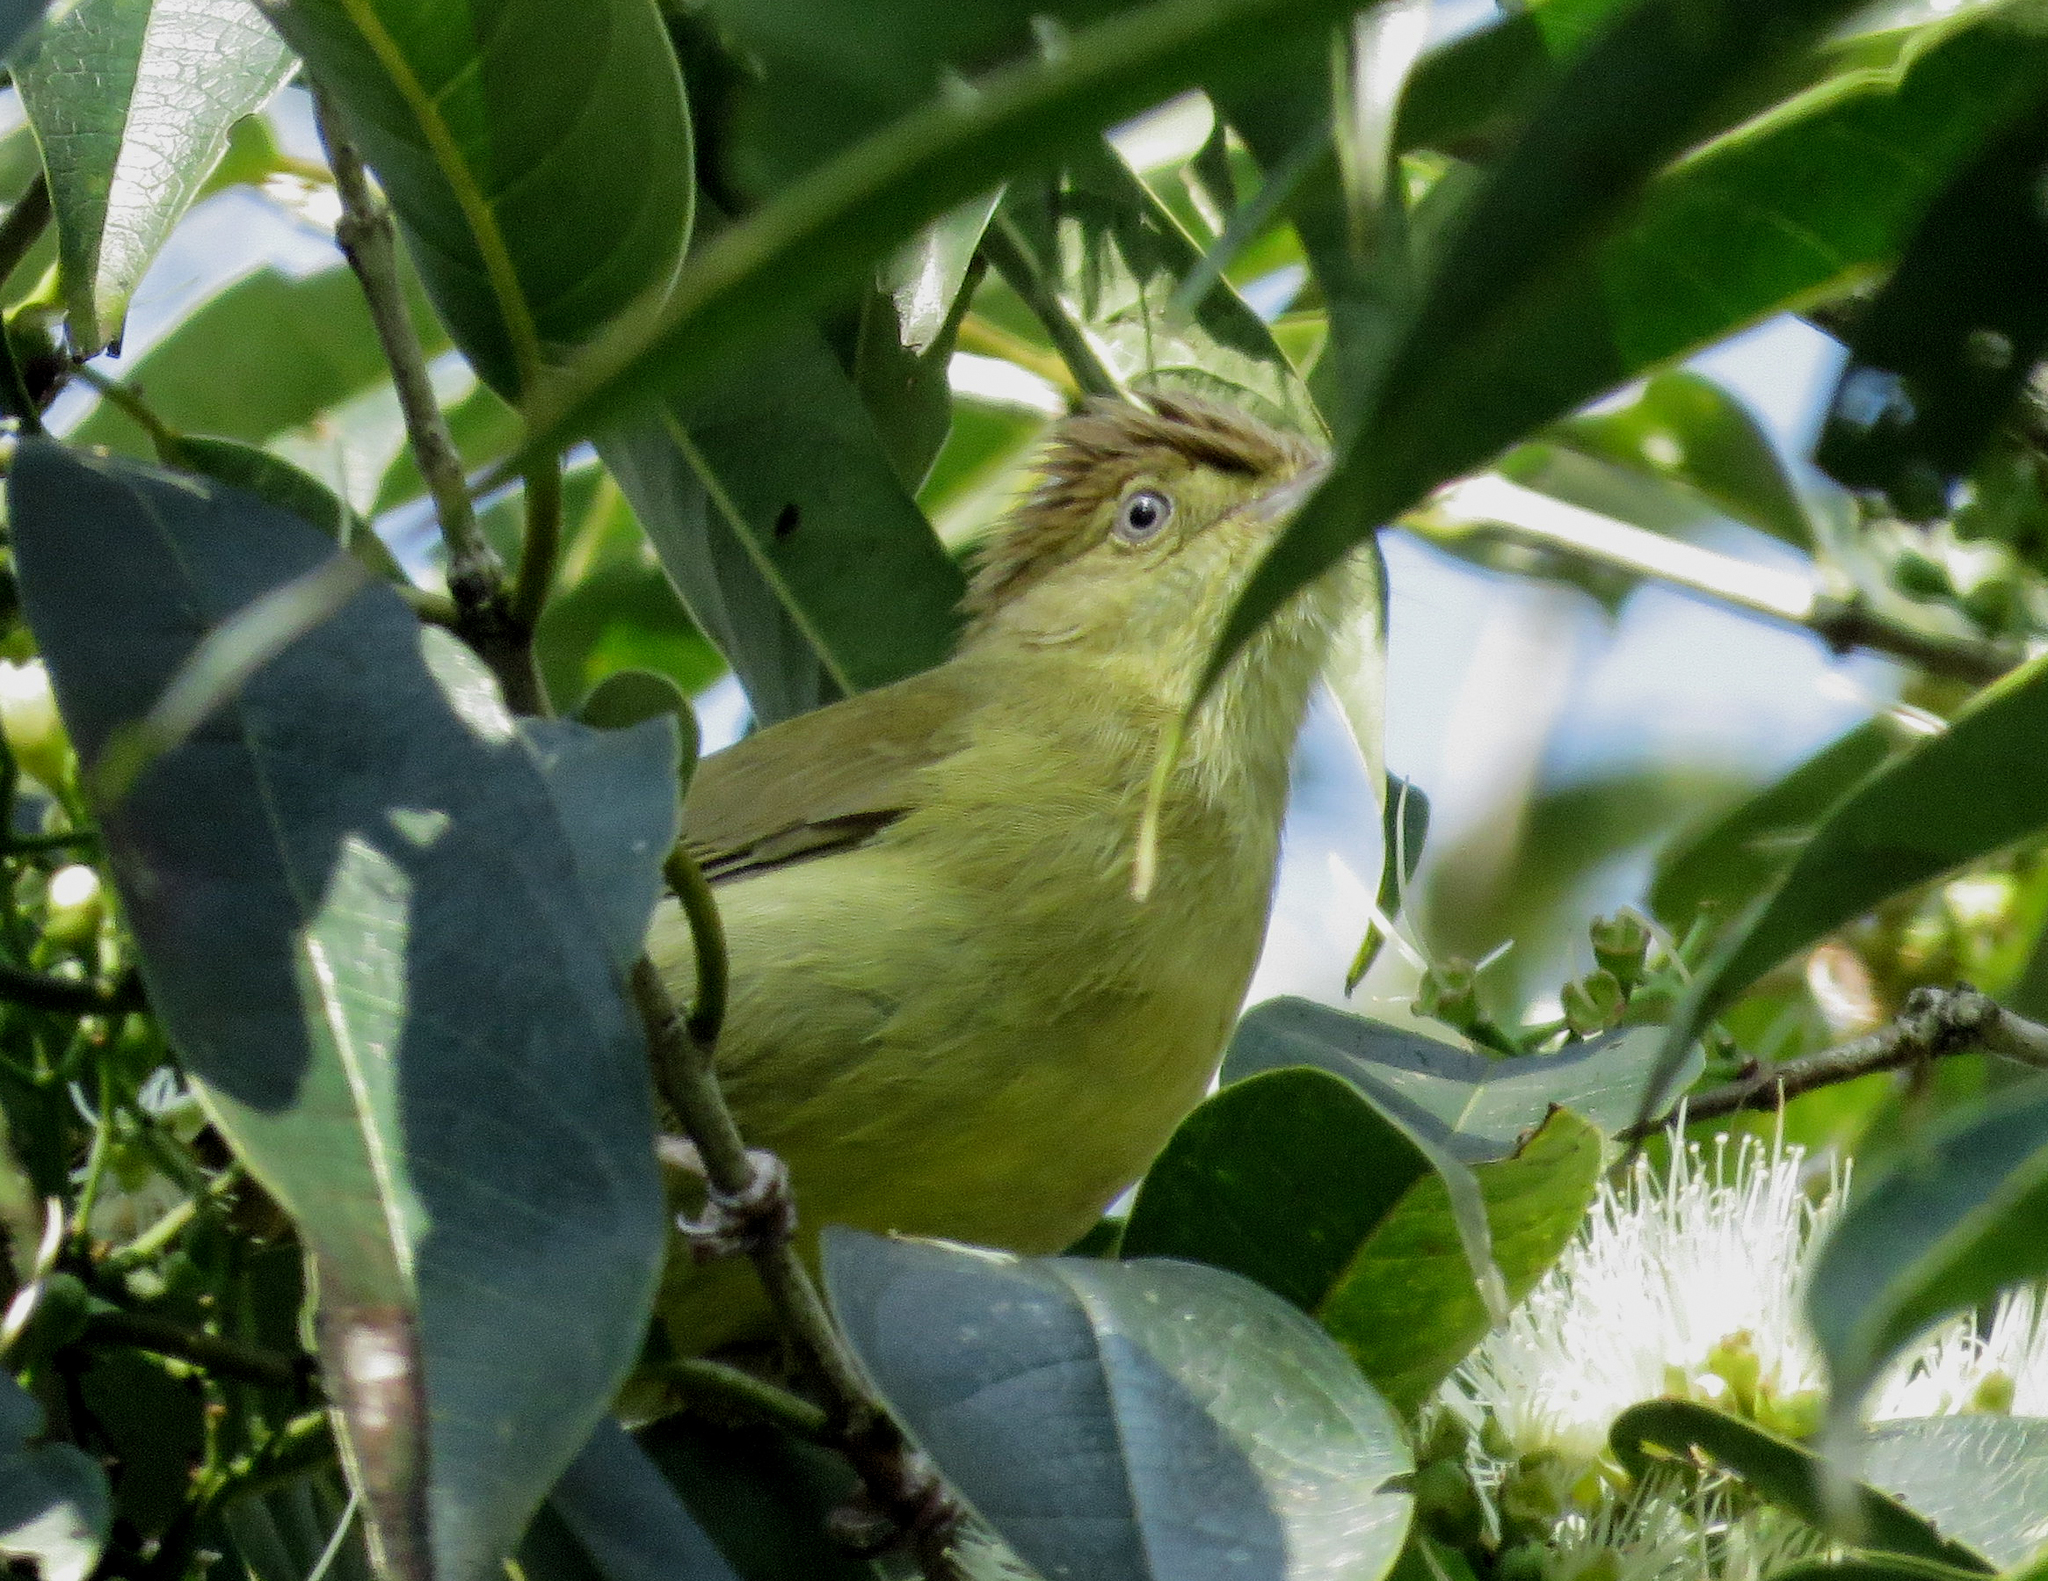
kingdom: Animalia
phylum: Chordata
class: Aves
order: Passeriformes
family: Pycnonotidae
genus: Iole
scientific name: Iole virescens
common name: Olive bulbul
